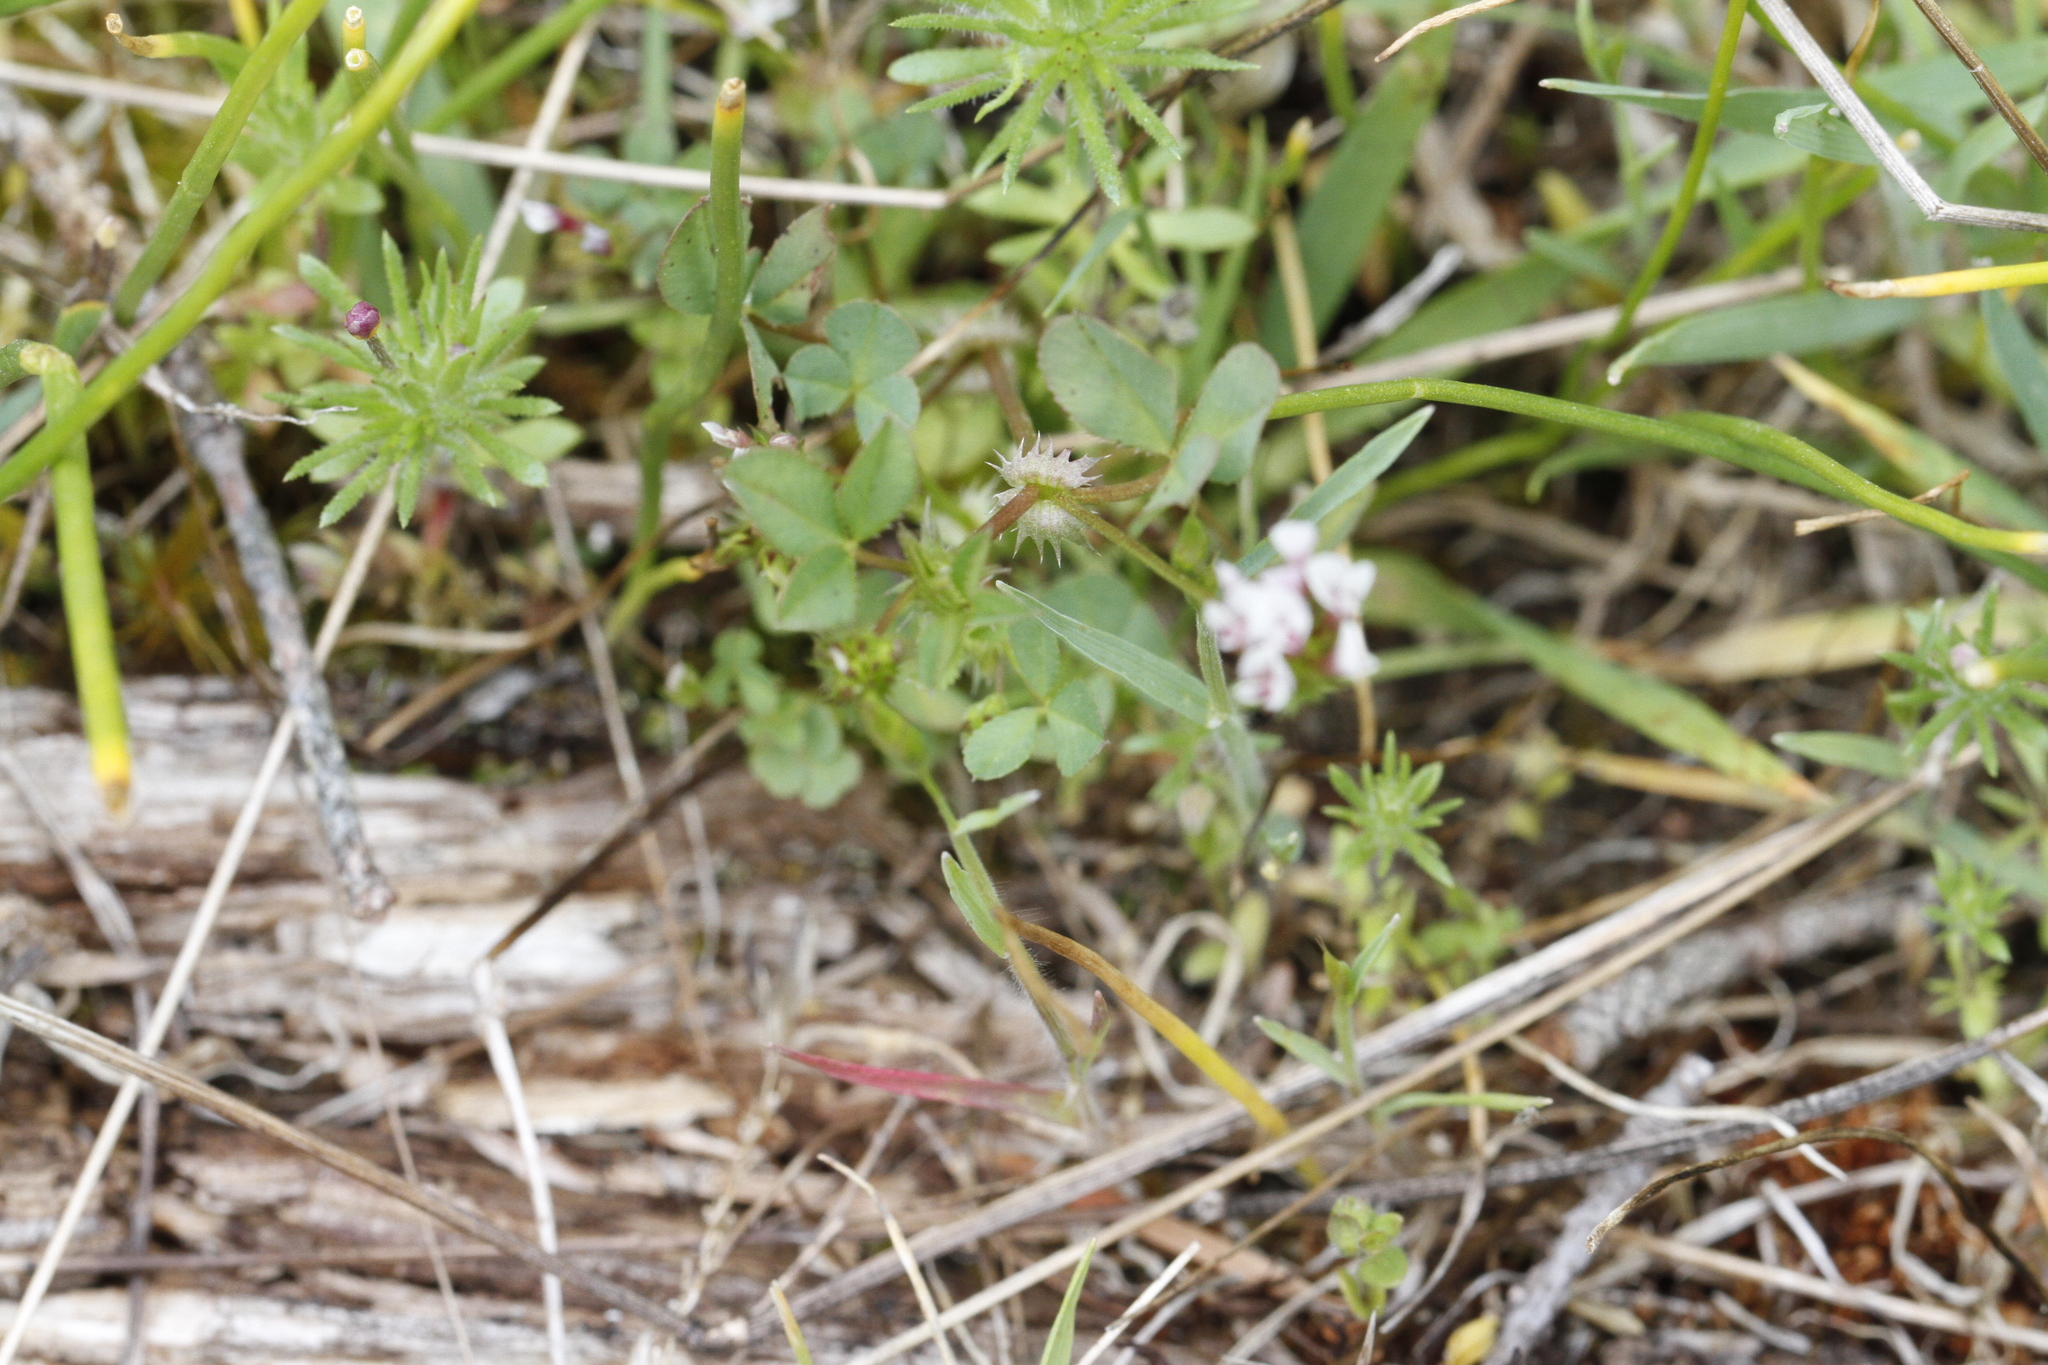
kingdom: Plantae
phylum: Tracheophyta
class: Magnoliopsida
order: Fabales
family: Fabaceae
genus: Trifolium
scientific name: Trifolium variegatum
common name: Whitetip clover
